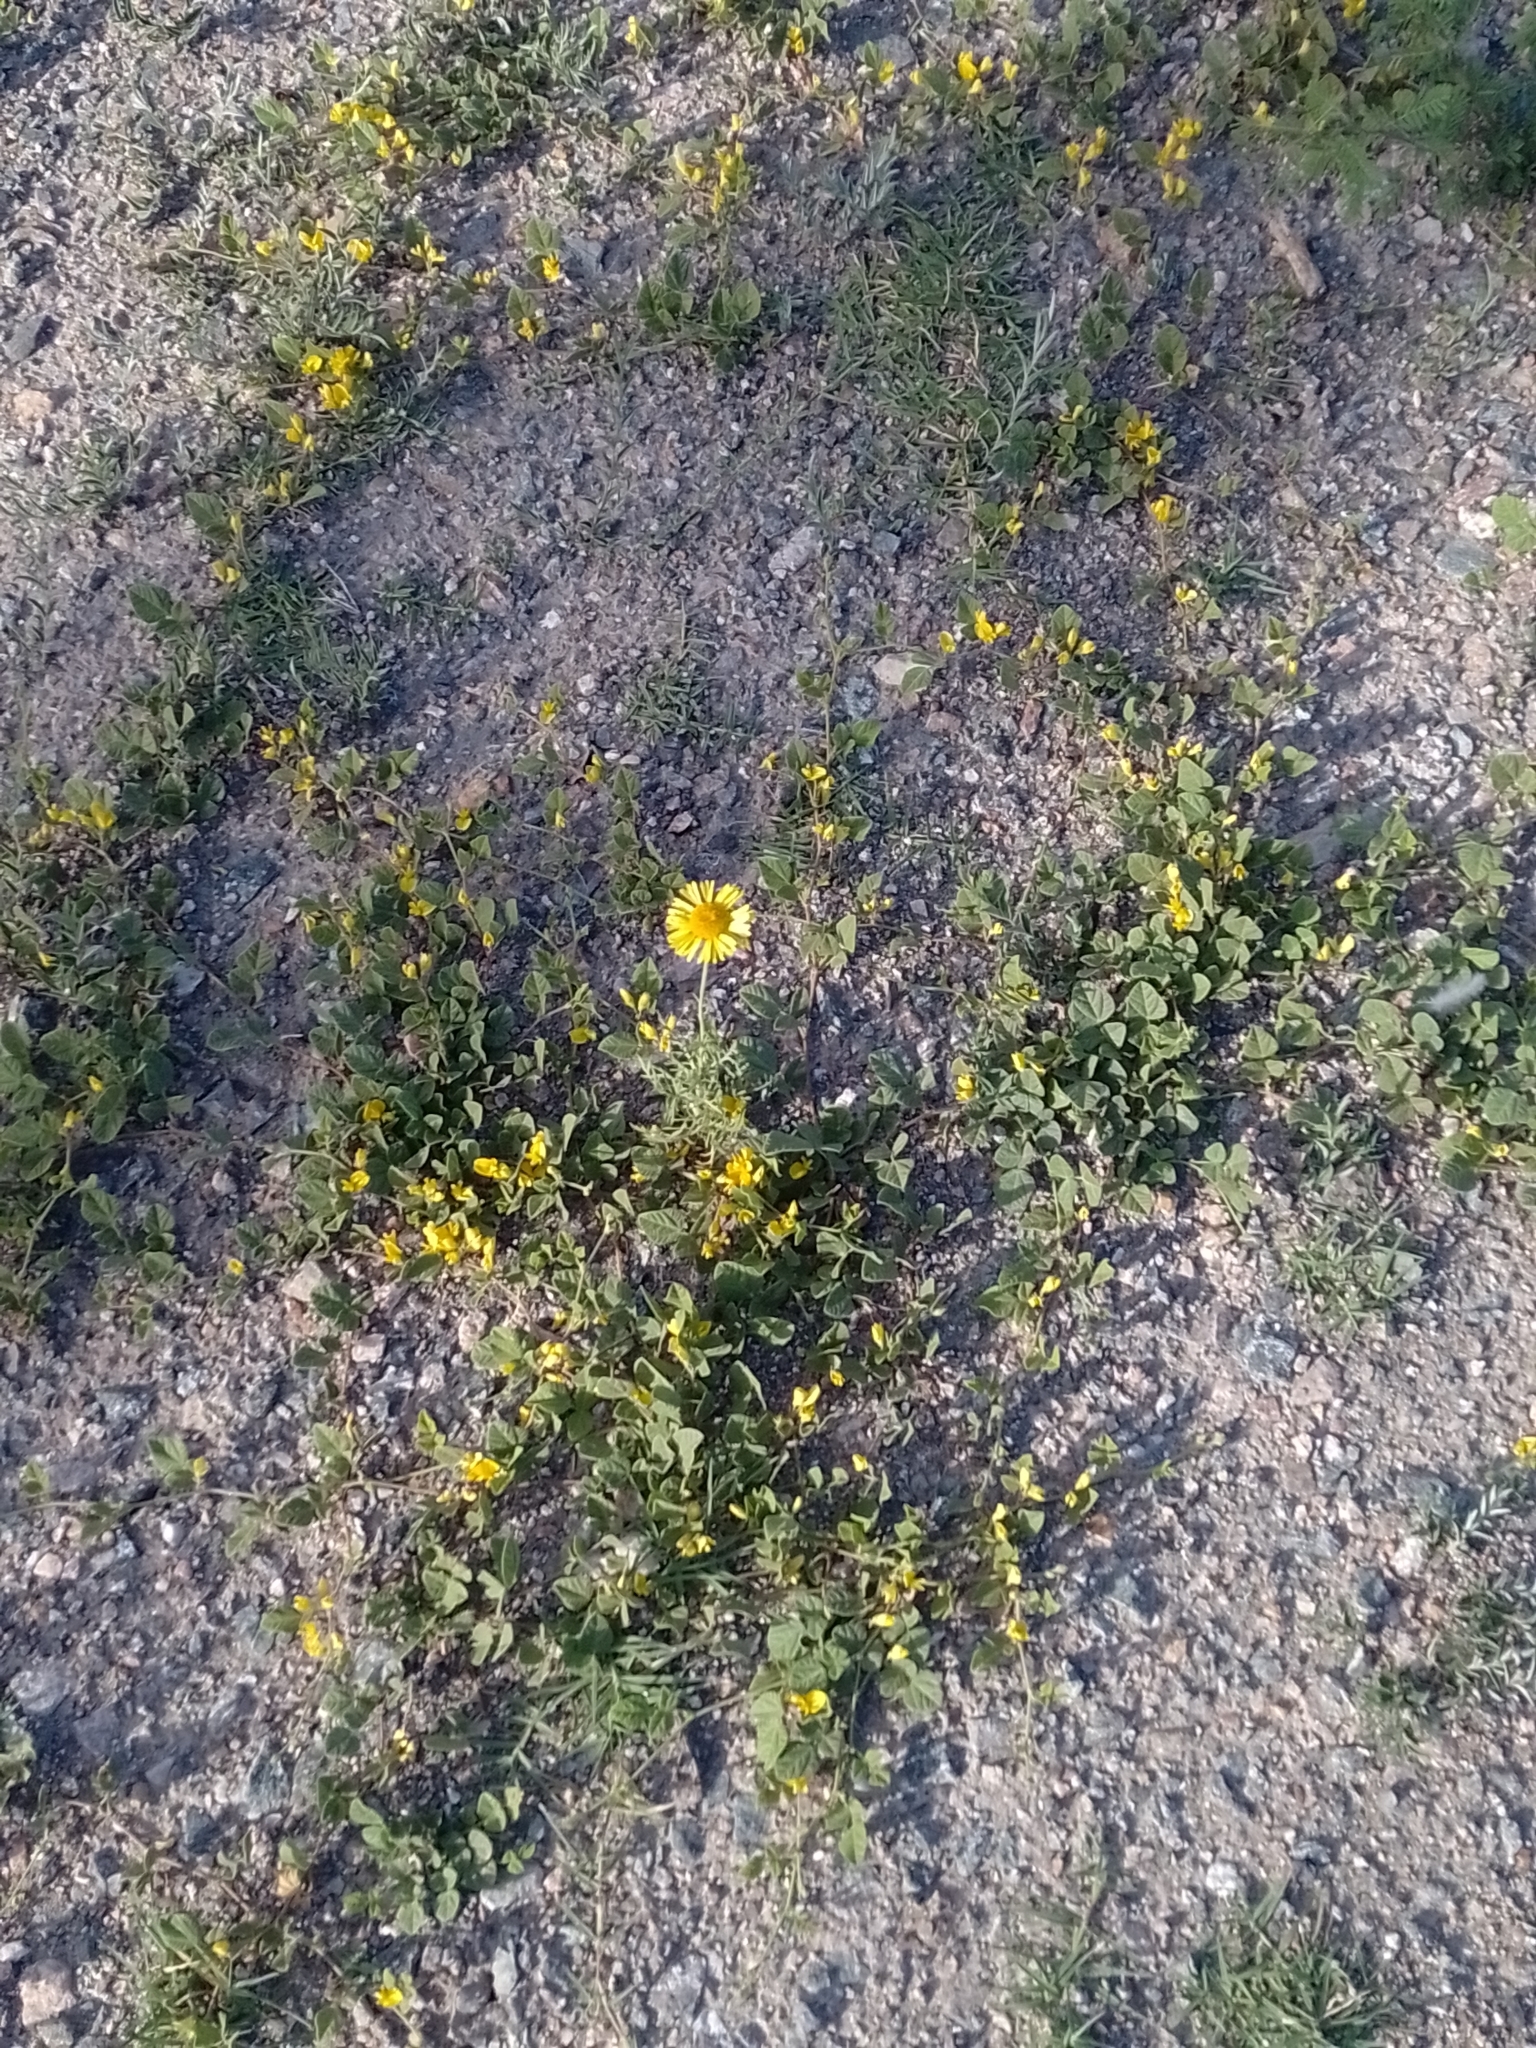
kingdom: Plantae
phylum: Tracheophyta
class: Magnoliopsida
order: Fabales
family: Fabaceae
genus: Rhynchosia
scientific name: Rhynchosia edulis
